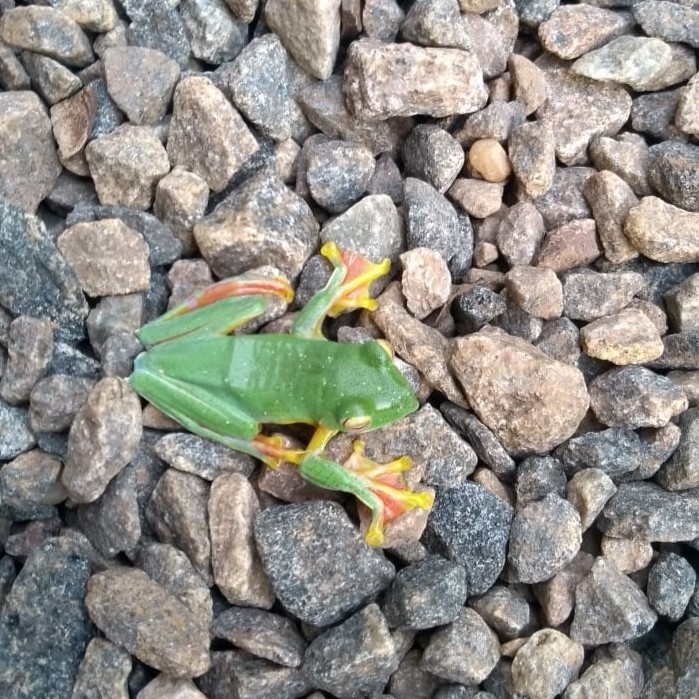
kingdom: Animalia
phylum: Chordata
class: Amphibia
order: Anura
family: Rhacophoridae
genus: Rhacophorus
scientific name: Rhacophorus malabaricus
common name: Malabar gliding frog
